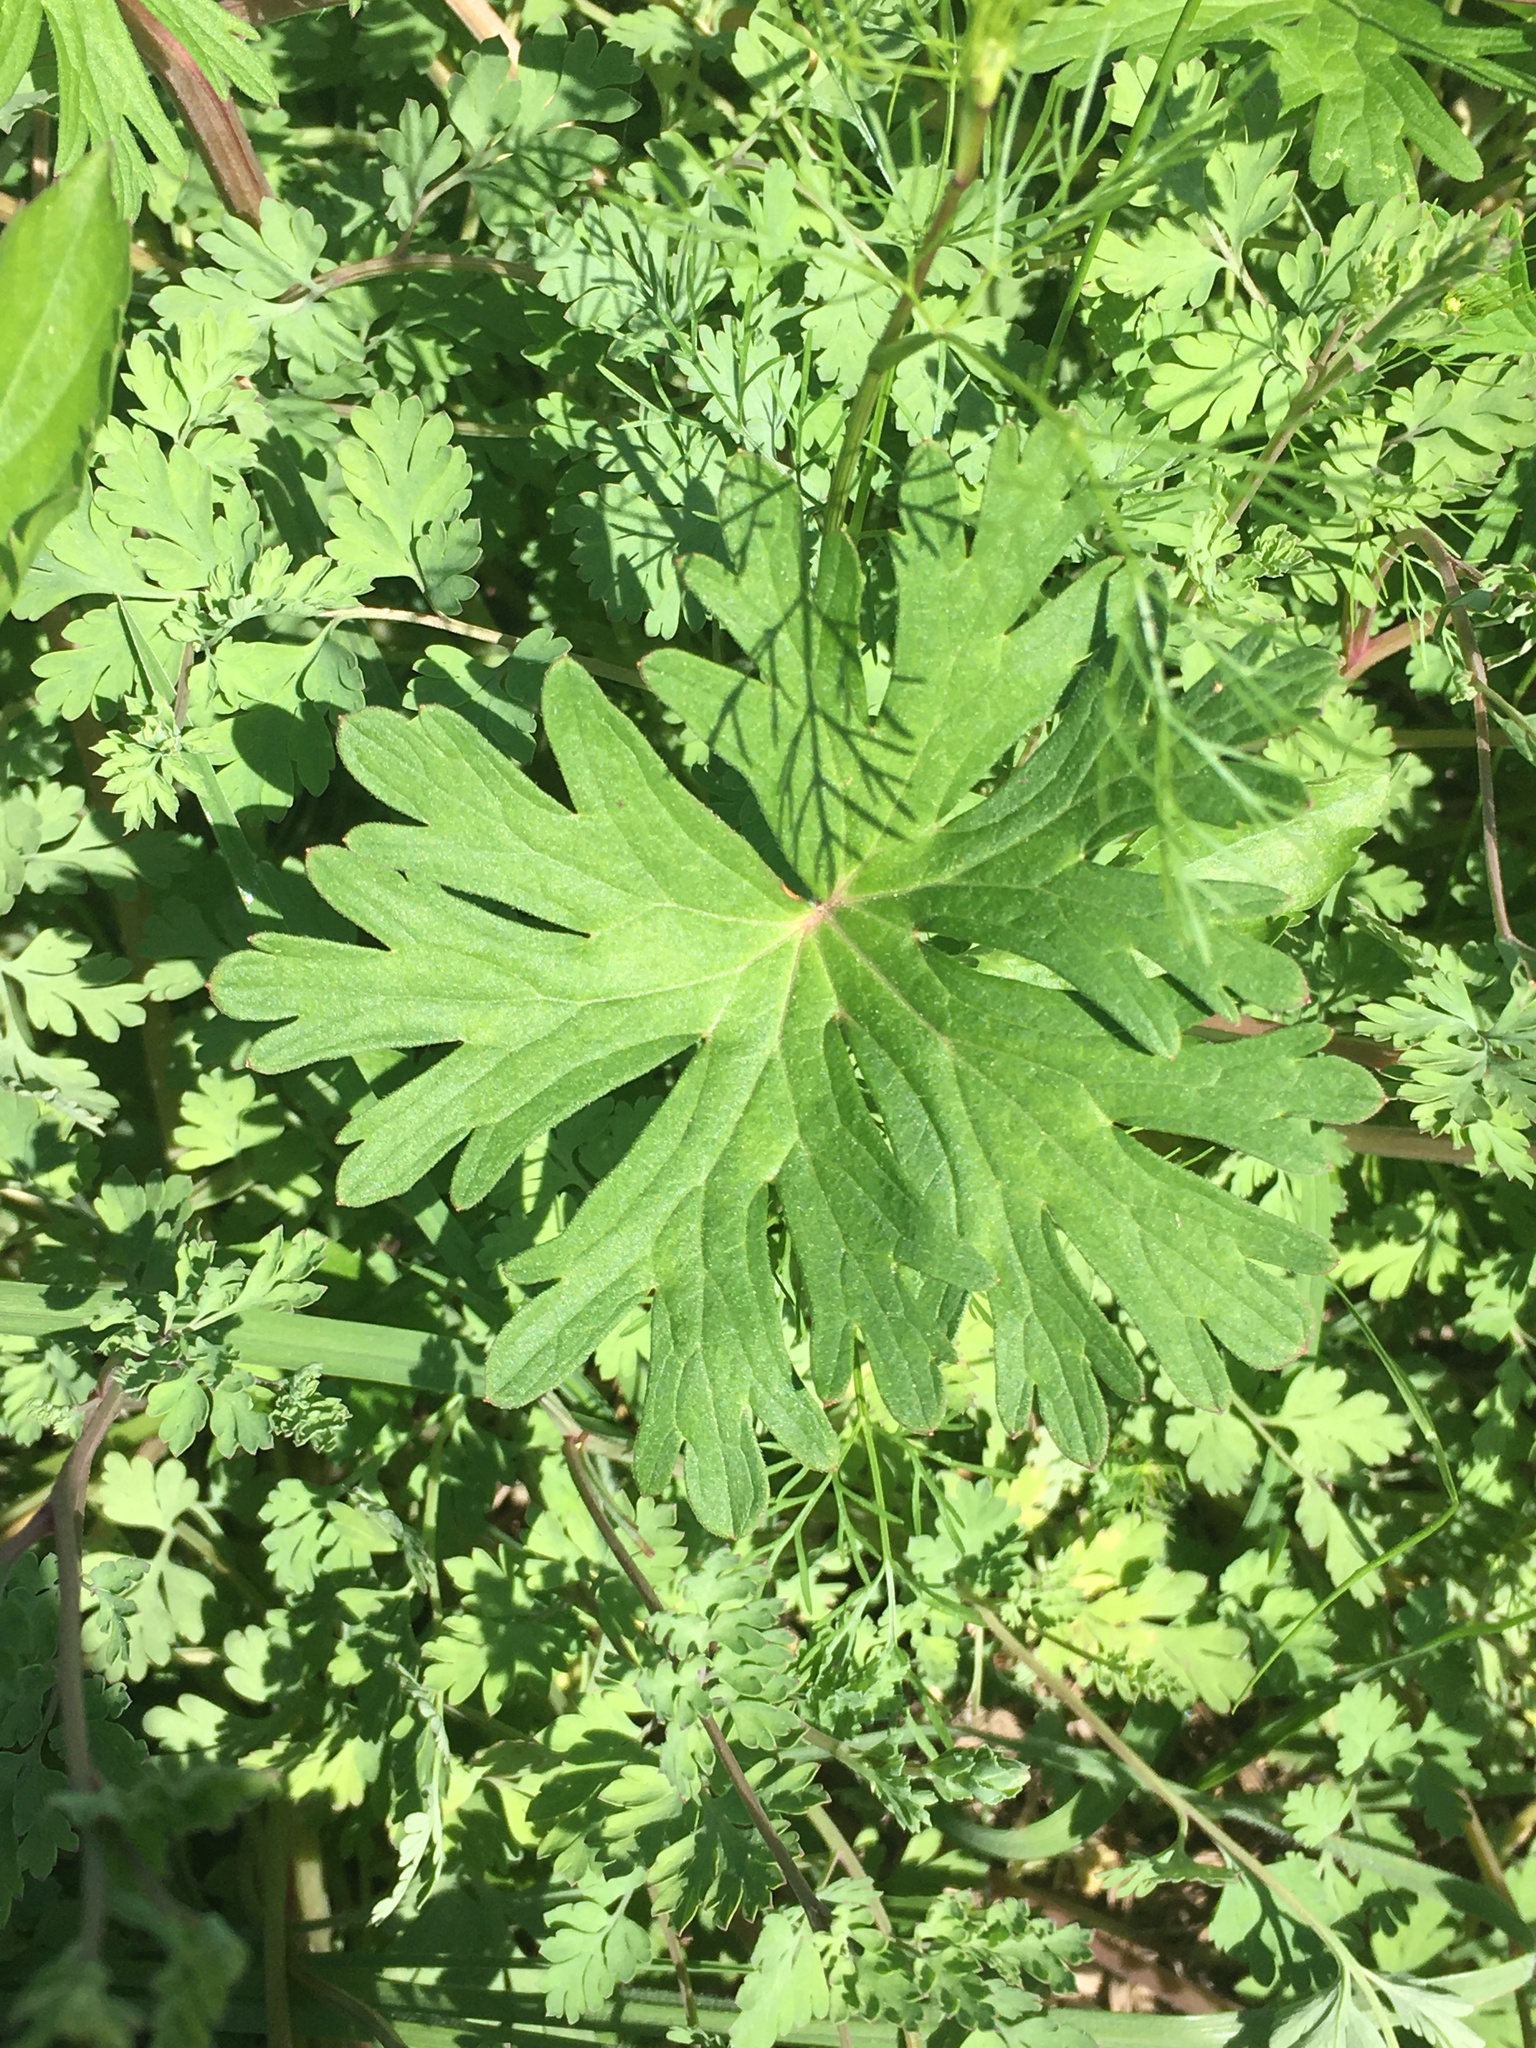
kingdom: Plantae
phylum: Tracheophyta
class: Magnoliopsida
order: Ranunculales
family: Papaveraceae
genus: Corydalis
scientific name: Corydalis micrantha
